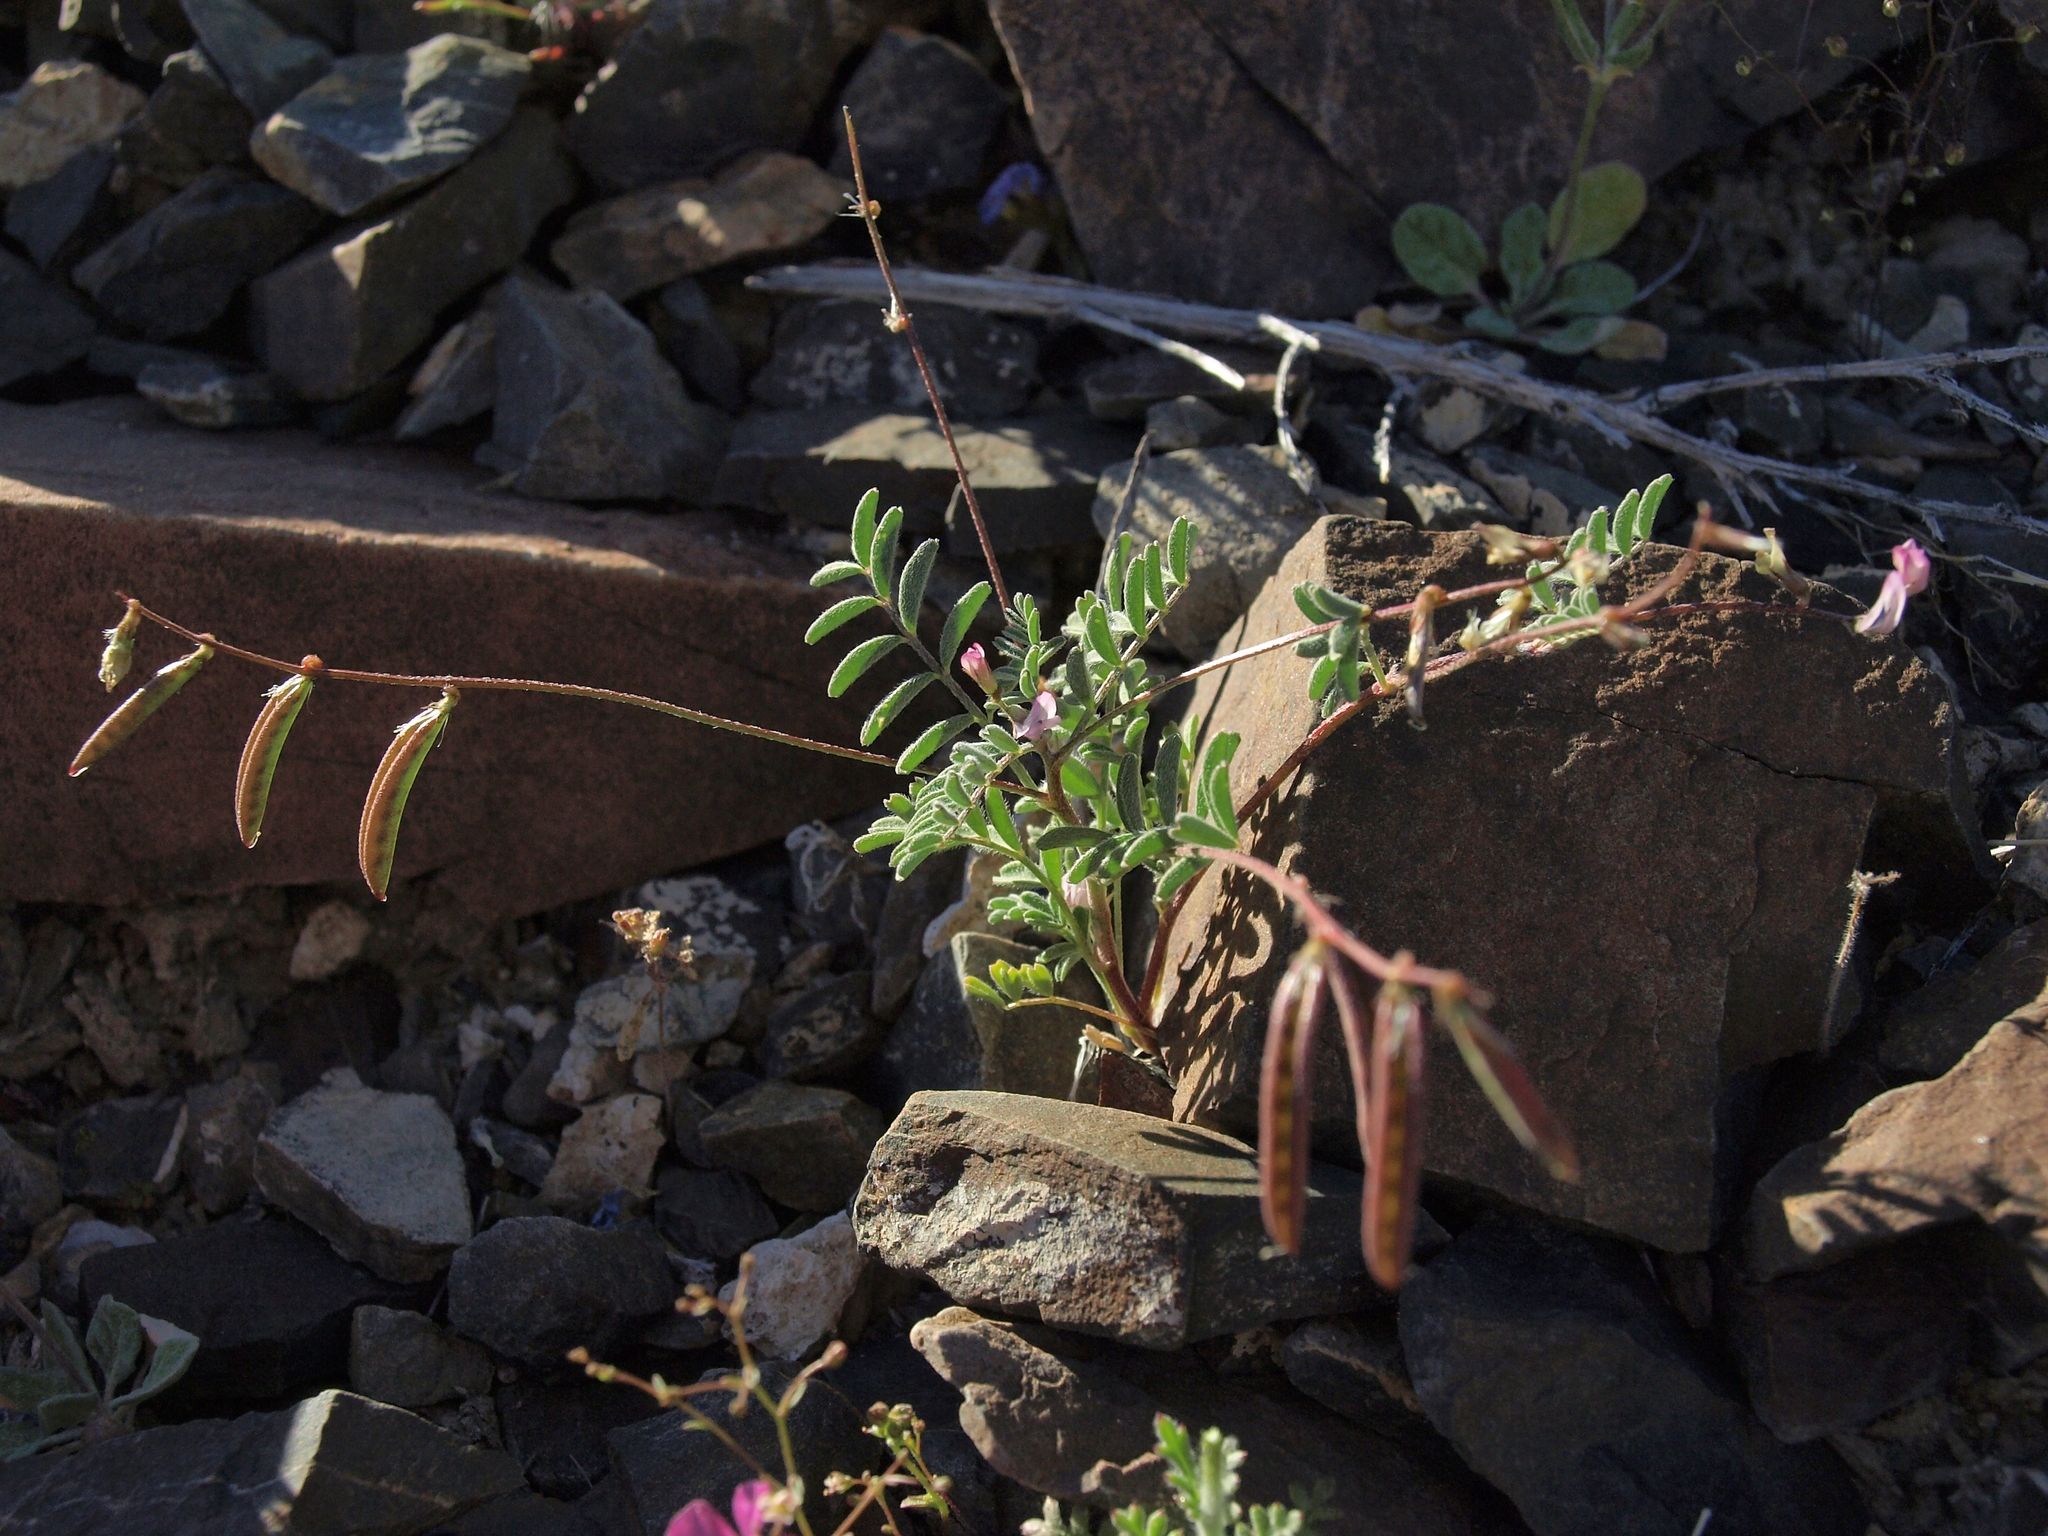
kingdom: Plantae
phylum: Tracheophyta
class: Magnoliopsida
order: Fabales
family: Fabaceae
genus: Astragalus
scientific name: Astragalus acutirostris
